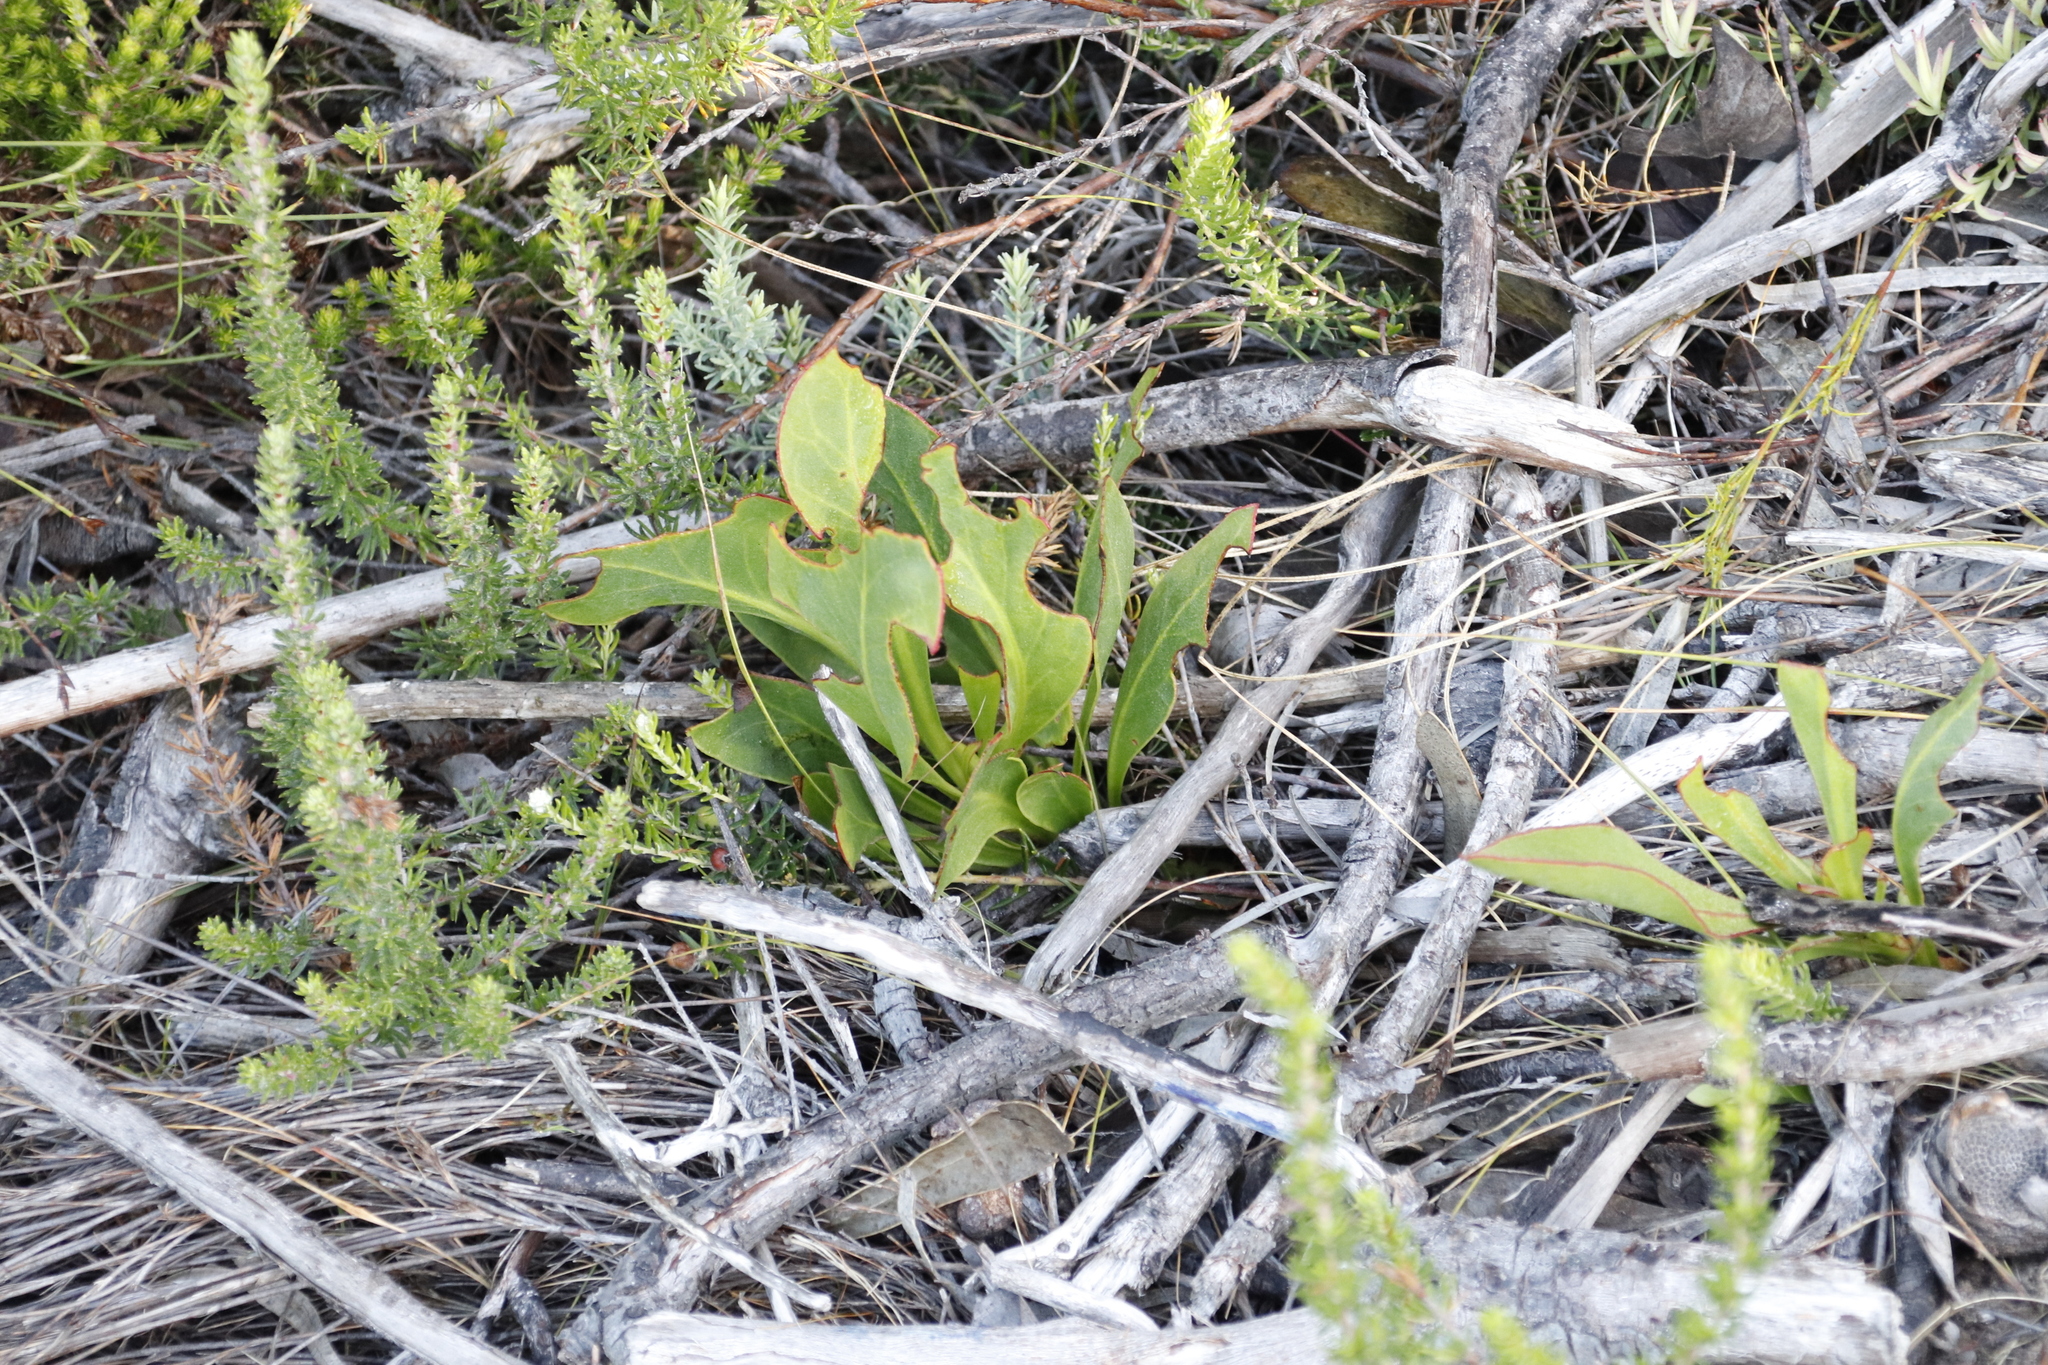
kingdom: Plantae
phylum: Tracheophyta
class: Magnoliopsida
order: Proteales
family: Proteaceae
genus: Protea
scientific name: Protea acaulos
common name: Common ground sugarbush
